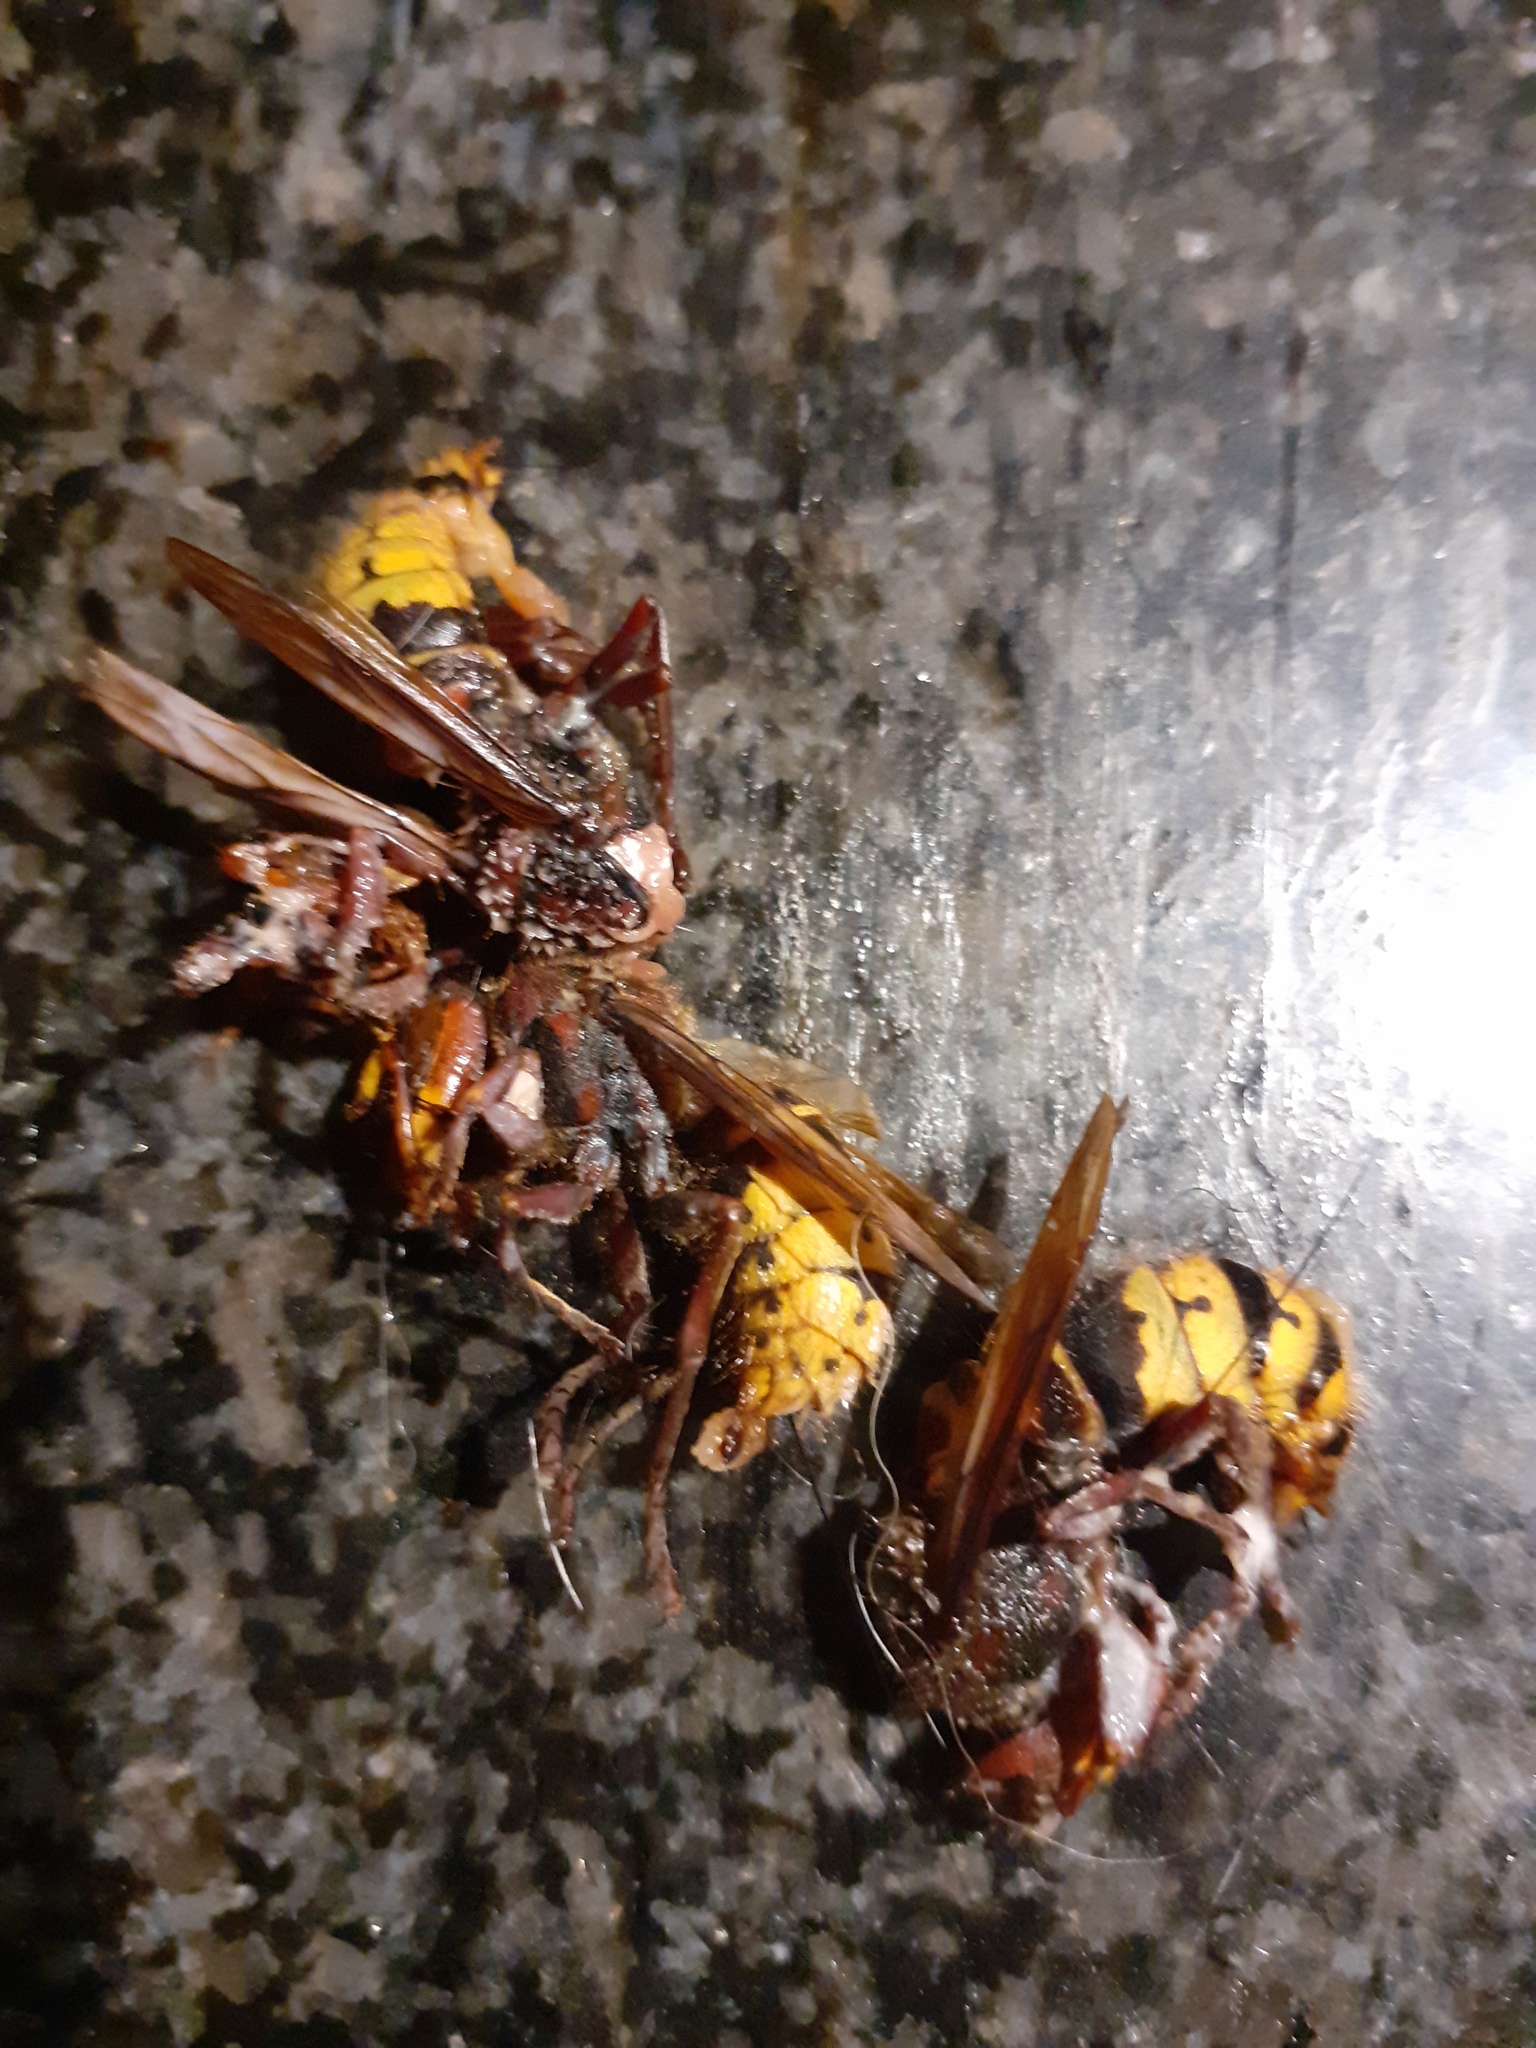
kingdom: Animalia
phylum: Arthropoda
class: Insecta
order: Hymenoptera
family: Vespidae
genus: Vespa
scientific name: Vespa crabro
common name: Hornet
